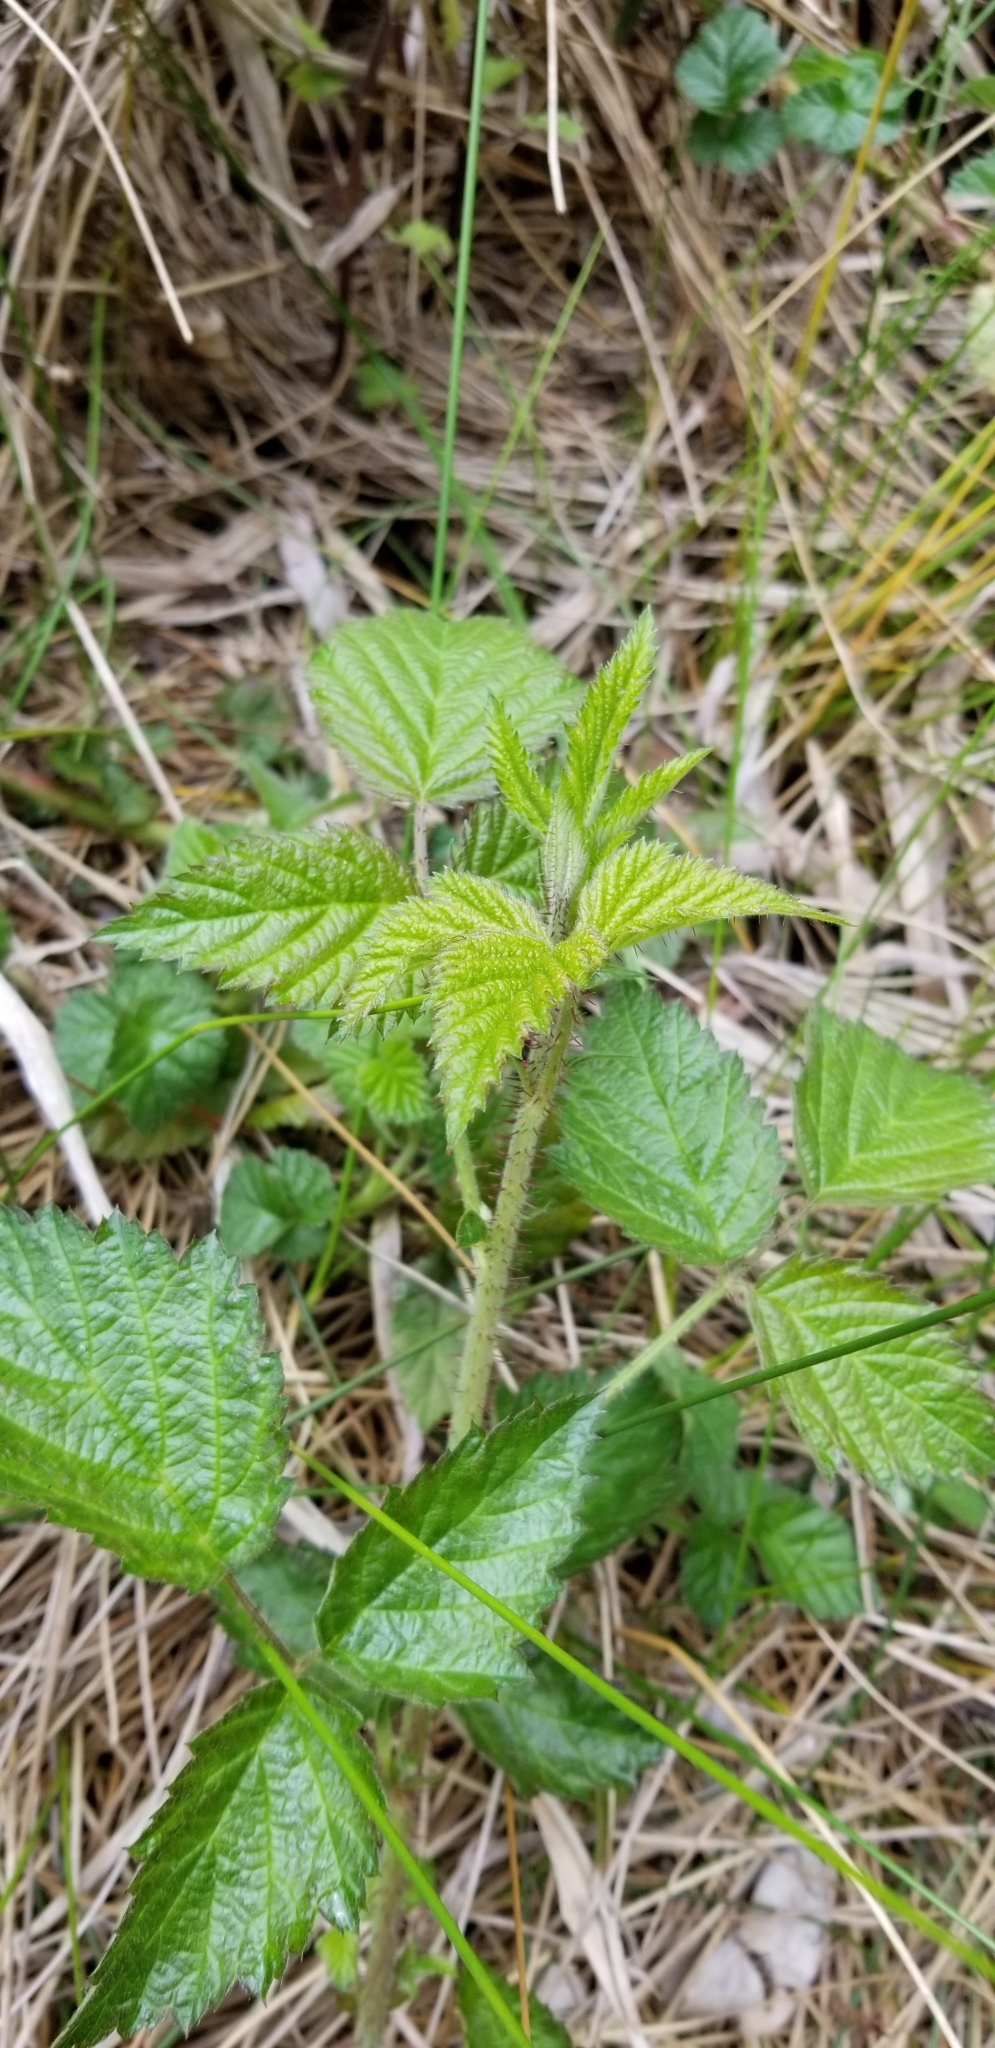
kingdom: Plantae
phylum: Tracheophyta
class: Magnoliopsida
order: Rosales
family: Rosaceae
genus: Rubus
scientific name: Rubus ursinus
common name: Pacific blackberry
